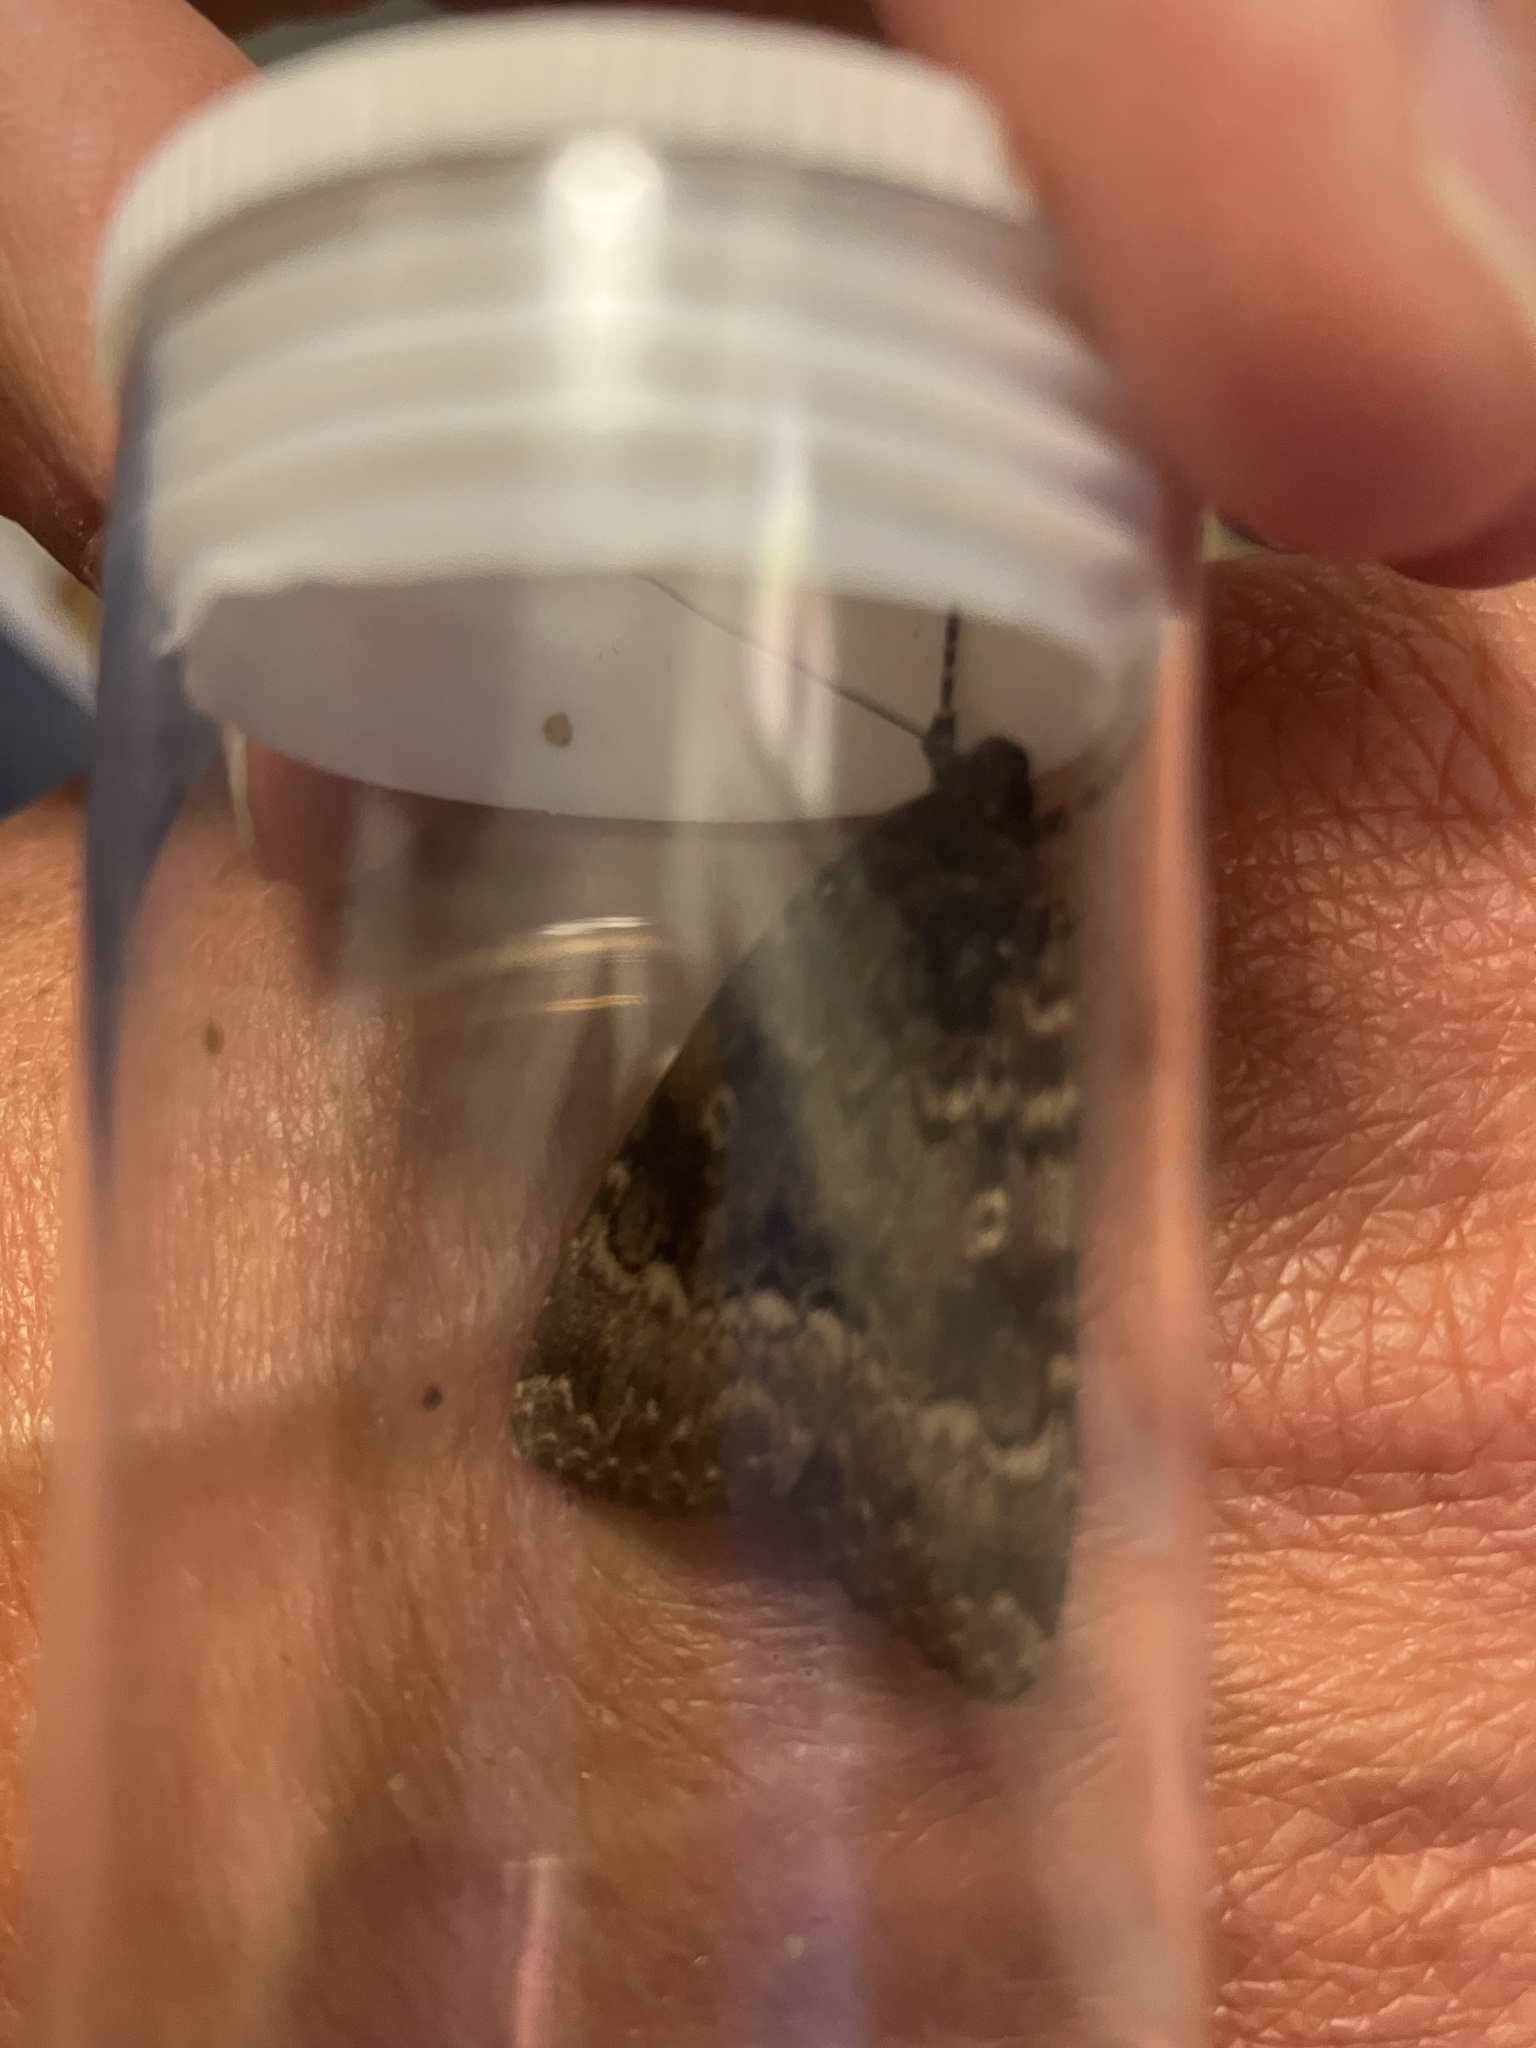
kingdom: Animalia
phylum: Arthropoda
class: Insecta
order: Lepidoptera
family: Noctuidae
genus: Amphipyra
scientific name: Amphipyra berbera
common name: Svensson's copper underwing
